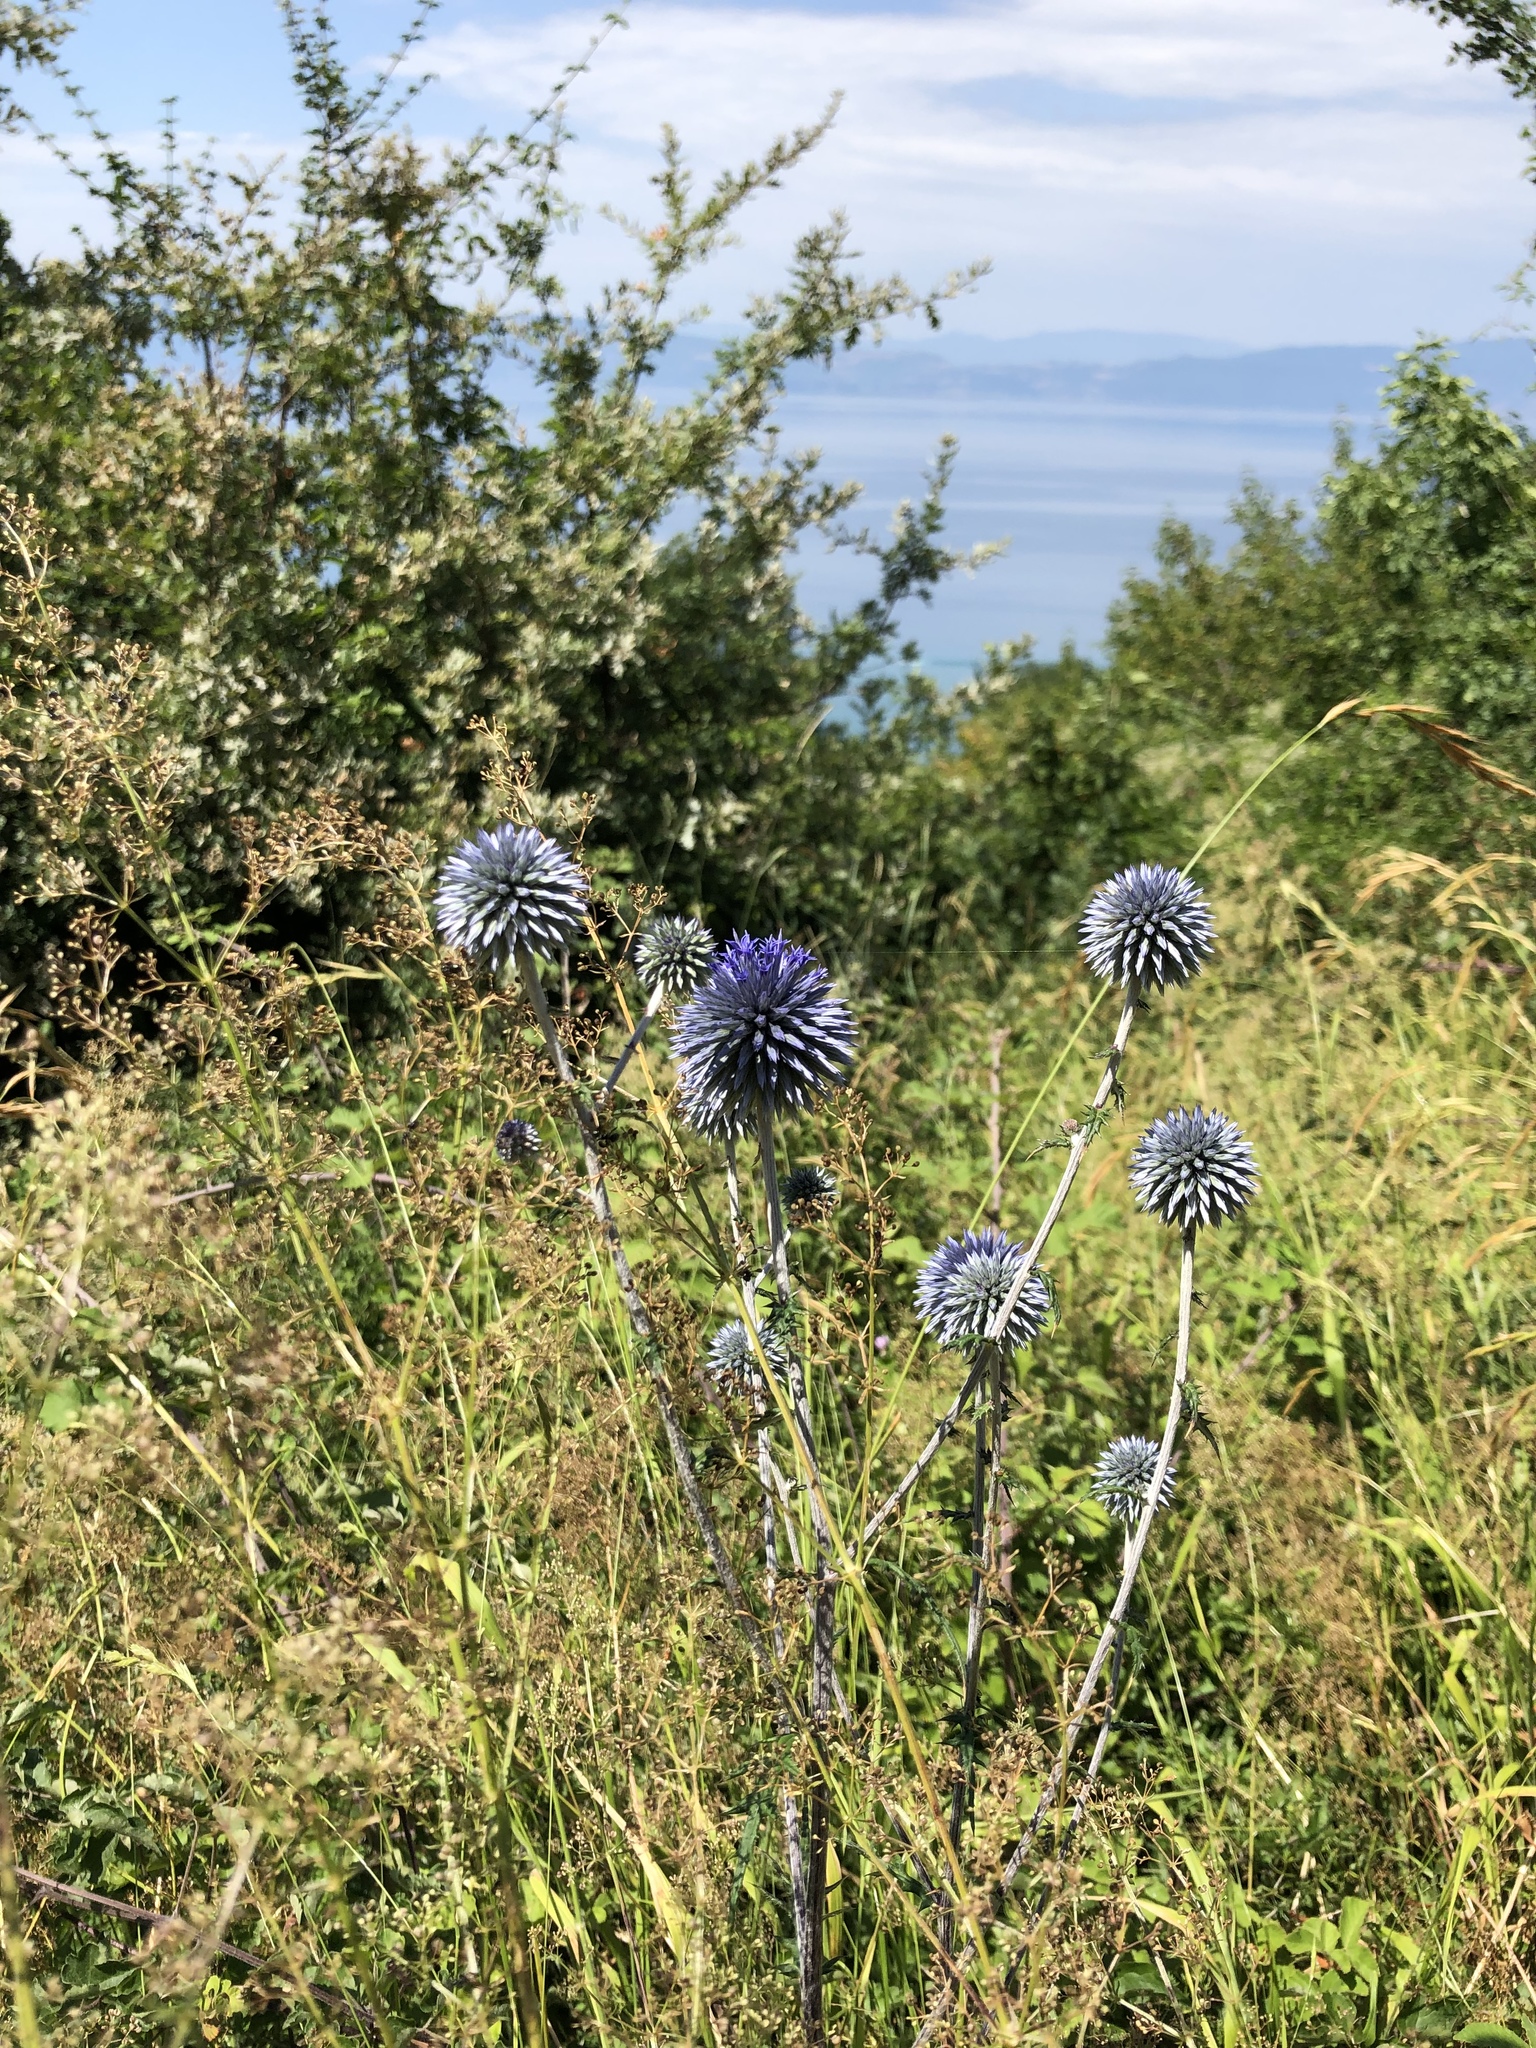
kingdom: Plantae
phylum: Tracheophyta
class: Magnoliopsida
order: Asterales
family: Asteraceae
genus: Echinops
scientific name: Echinops ritro
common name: Globe thistle
